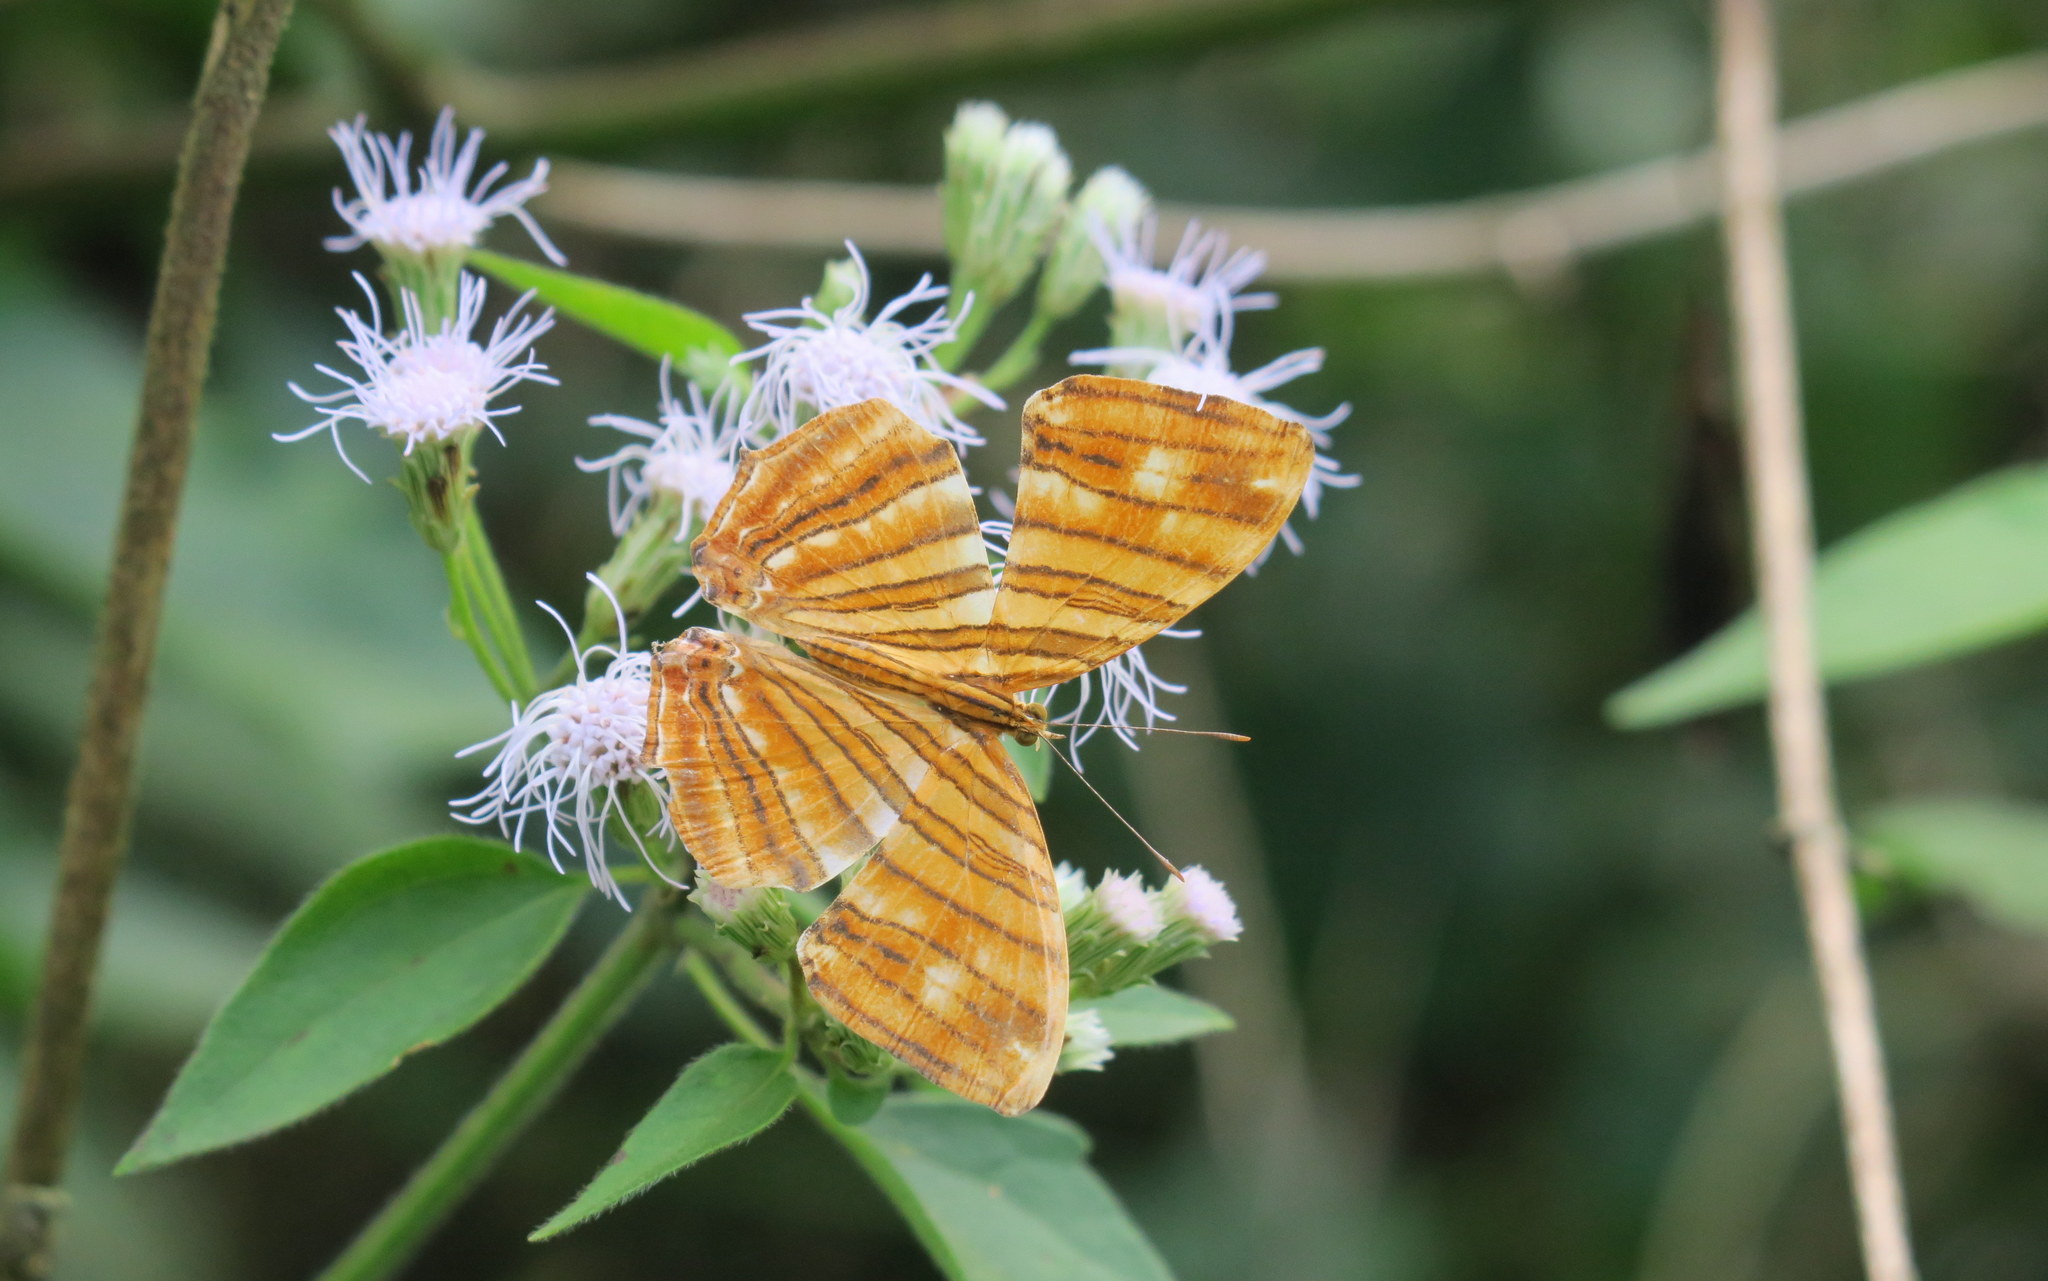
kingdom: Animalia
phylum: Arthropoda
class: Insecta
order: Lepidoptera
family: Nymphalidae
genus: Chersonesia
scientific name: Chersonesia risa
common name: Common maplet
